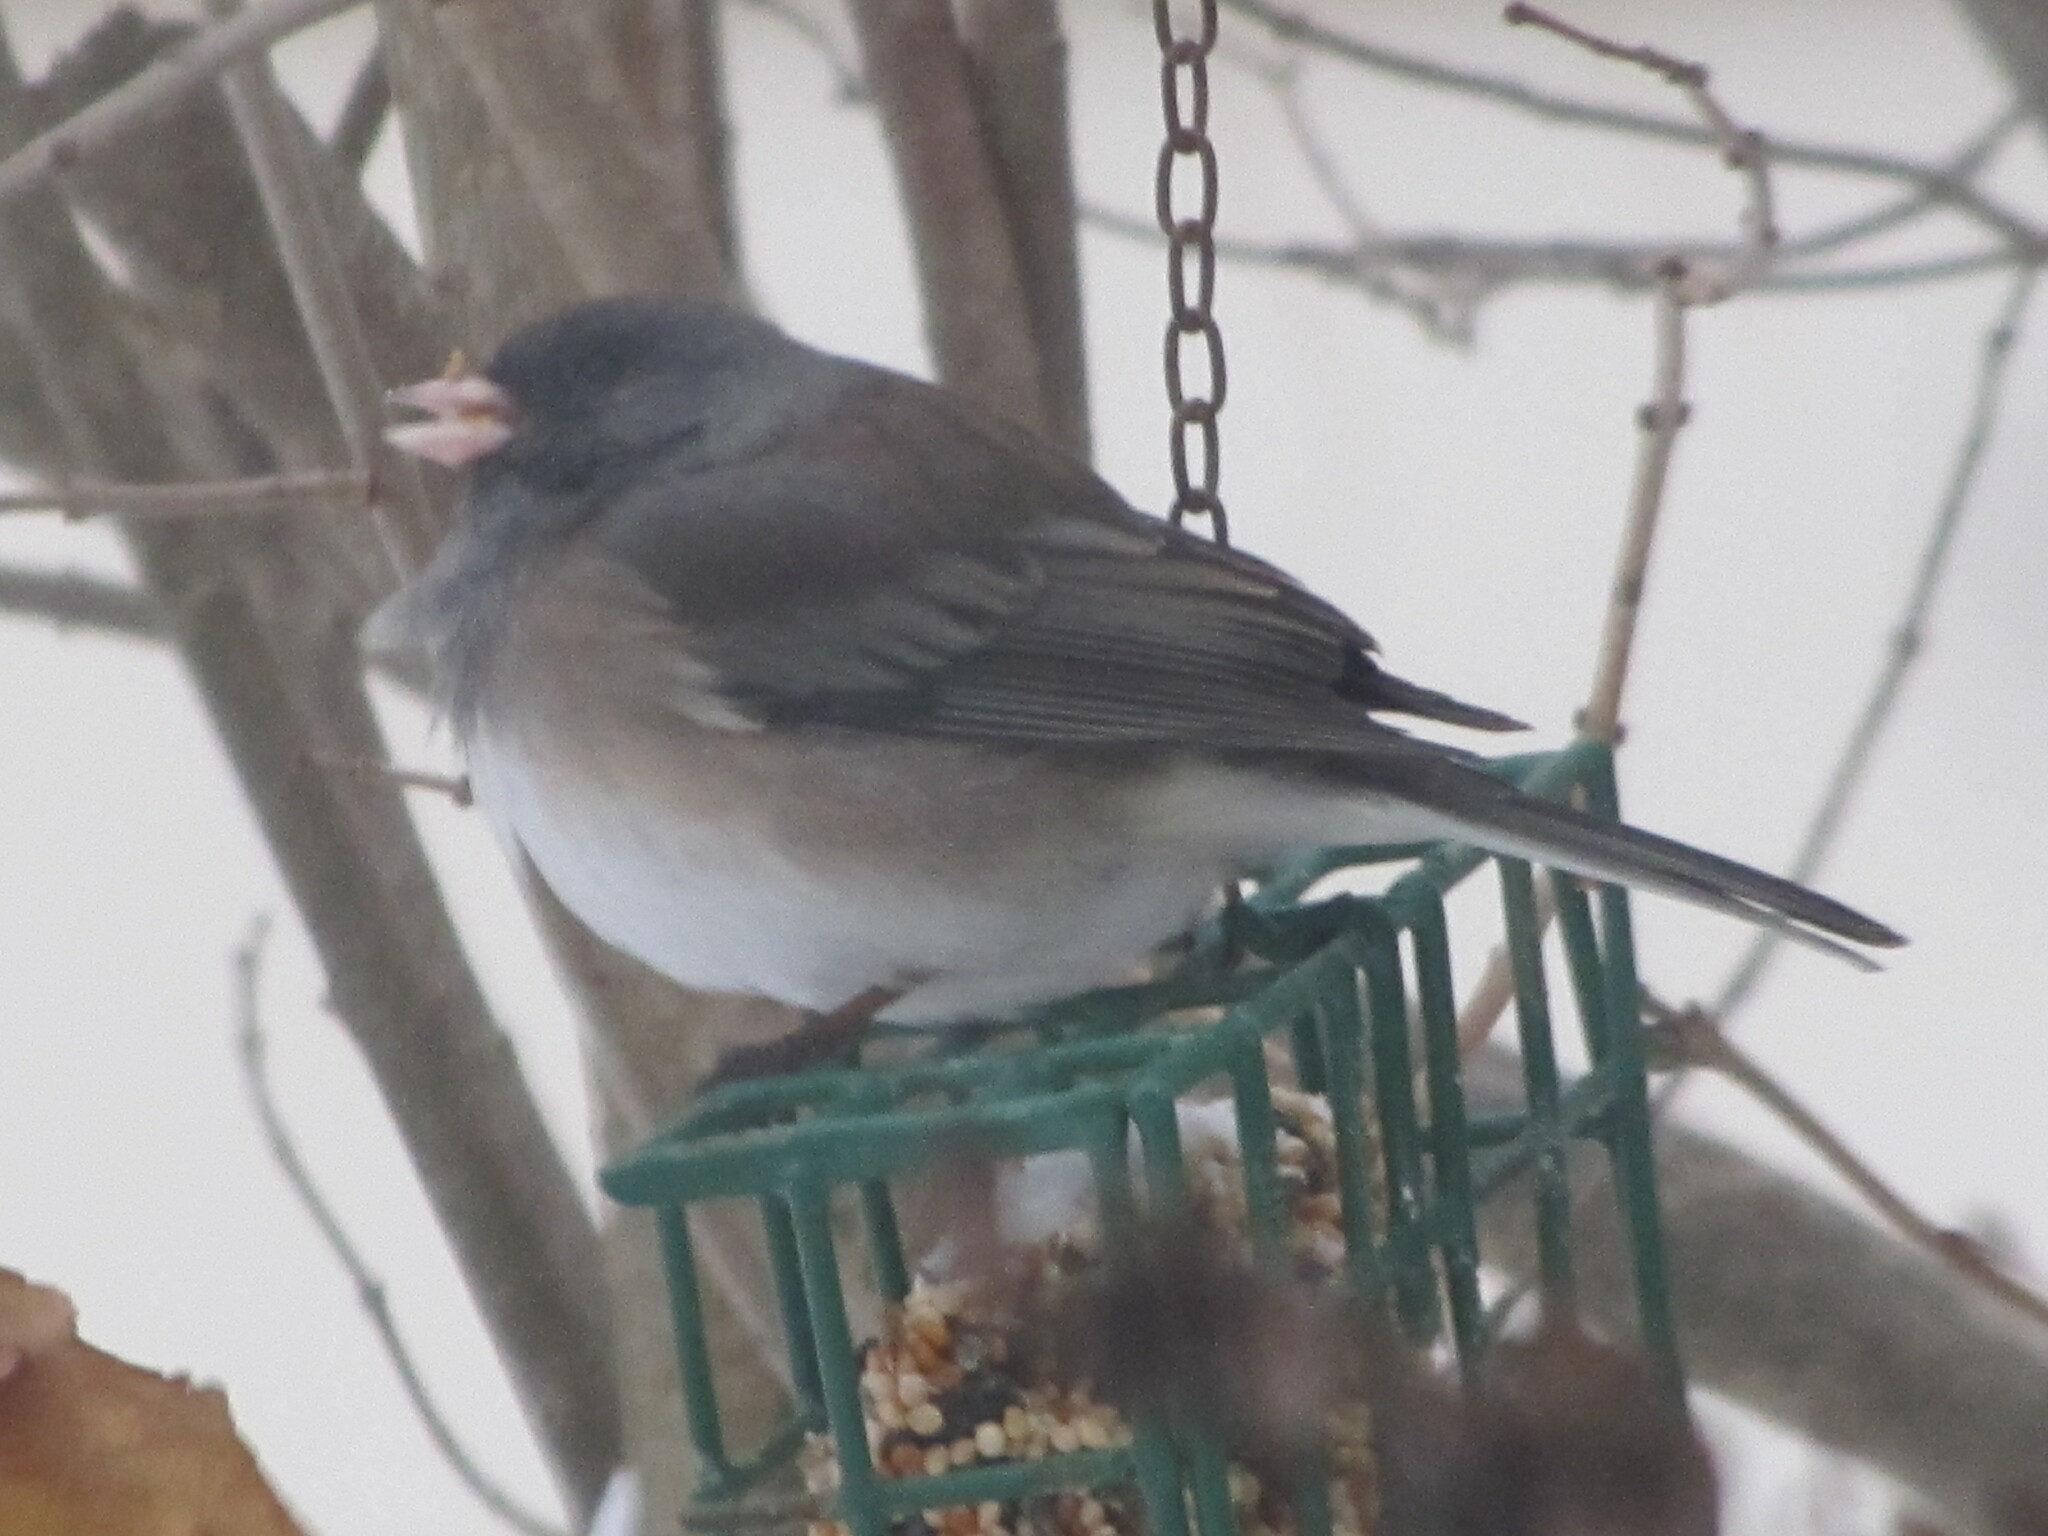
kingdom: Animalia
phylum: Chordata
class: Aves
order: Passeriformes
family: Passerellidae
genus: Junco
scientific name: Junco hyemalis
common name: Dark-eyed junco
